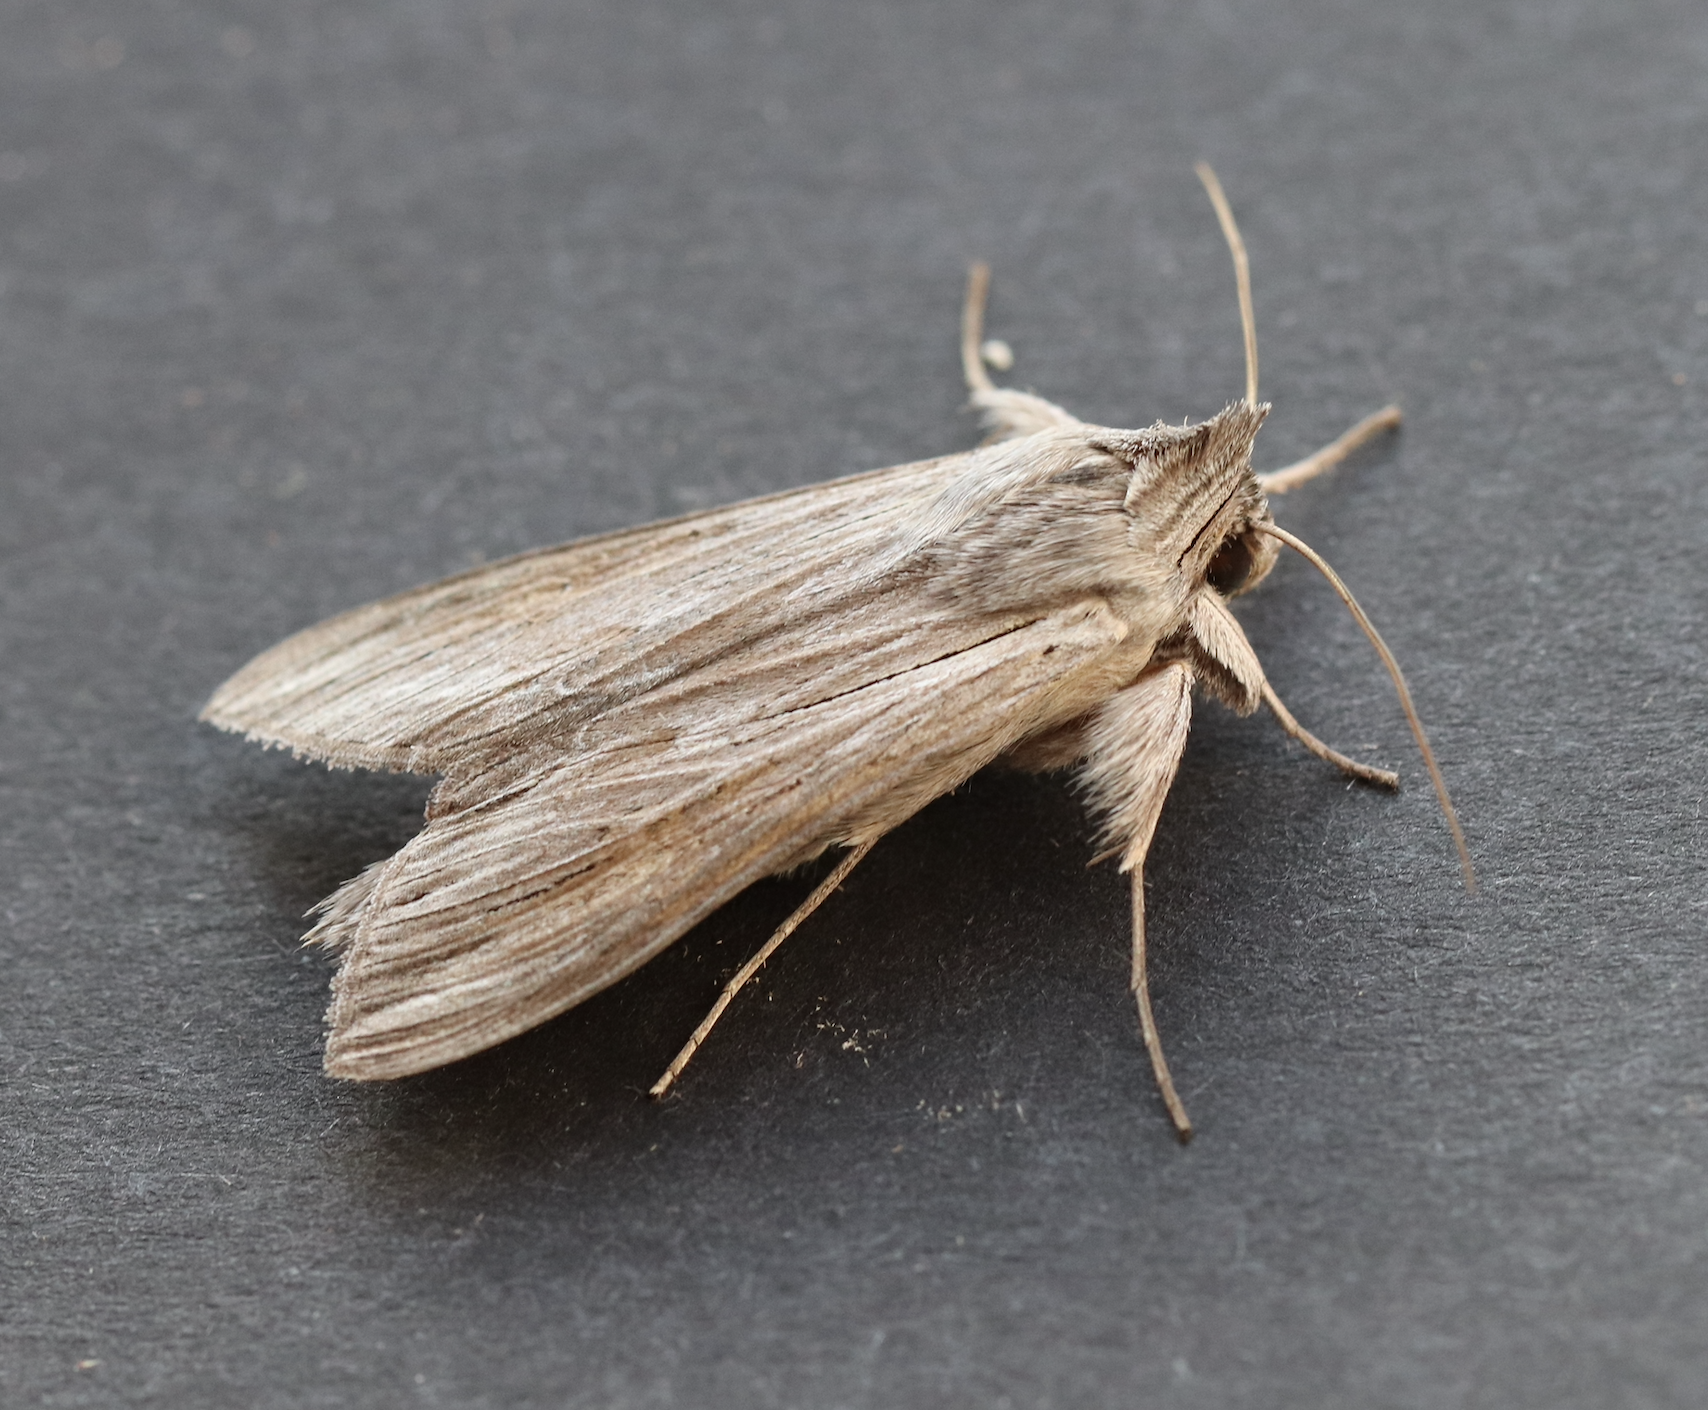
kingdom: Animalia
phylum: Arthropoda
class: Insecta
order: Lepidoptera
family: Noctuidae
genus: Cucullia
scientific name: Cucullia umbratica
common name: Shark
